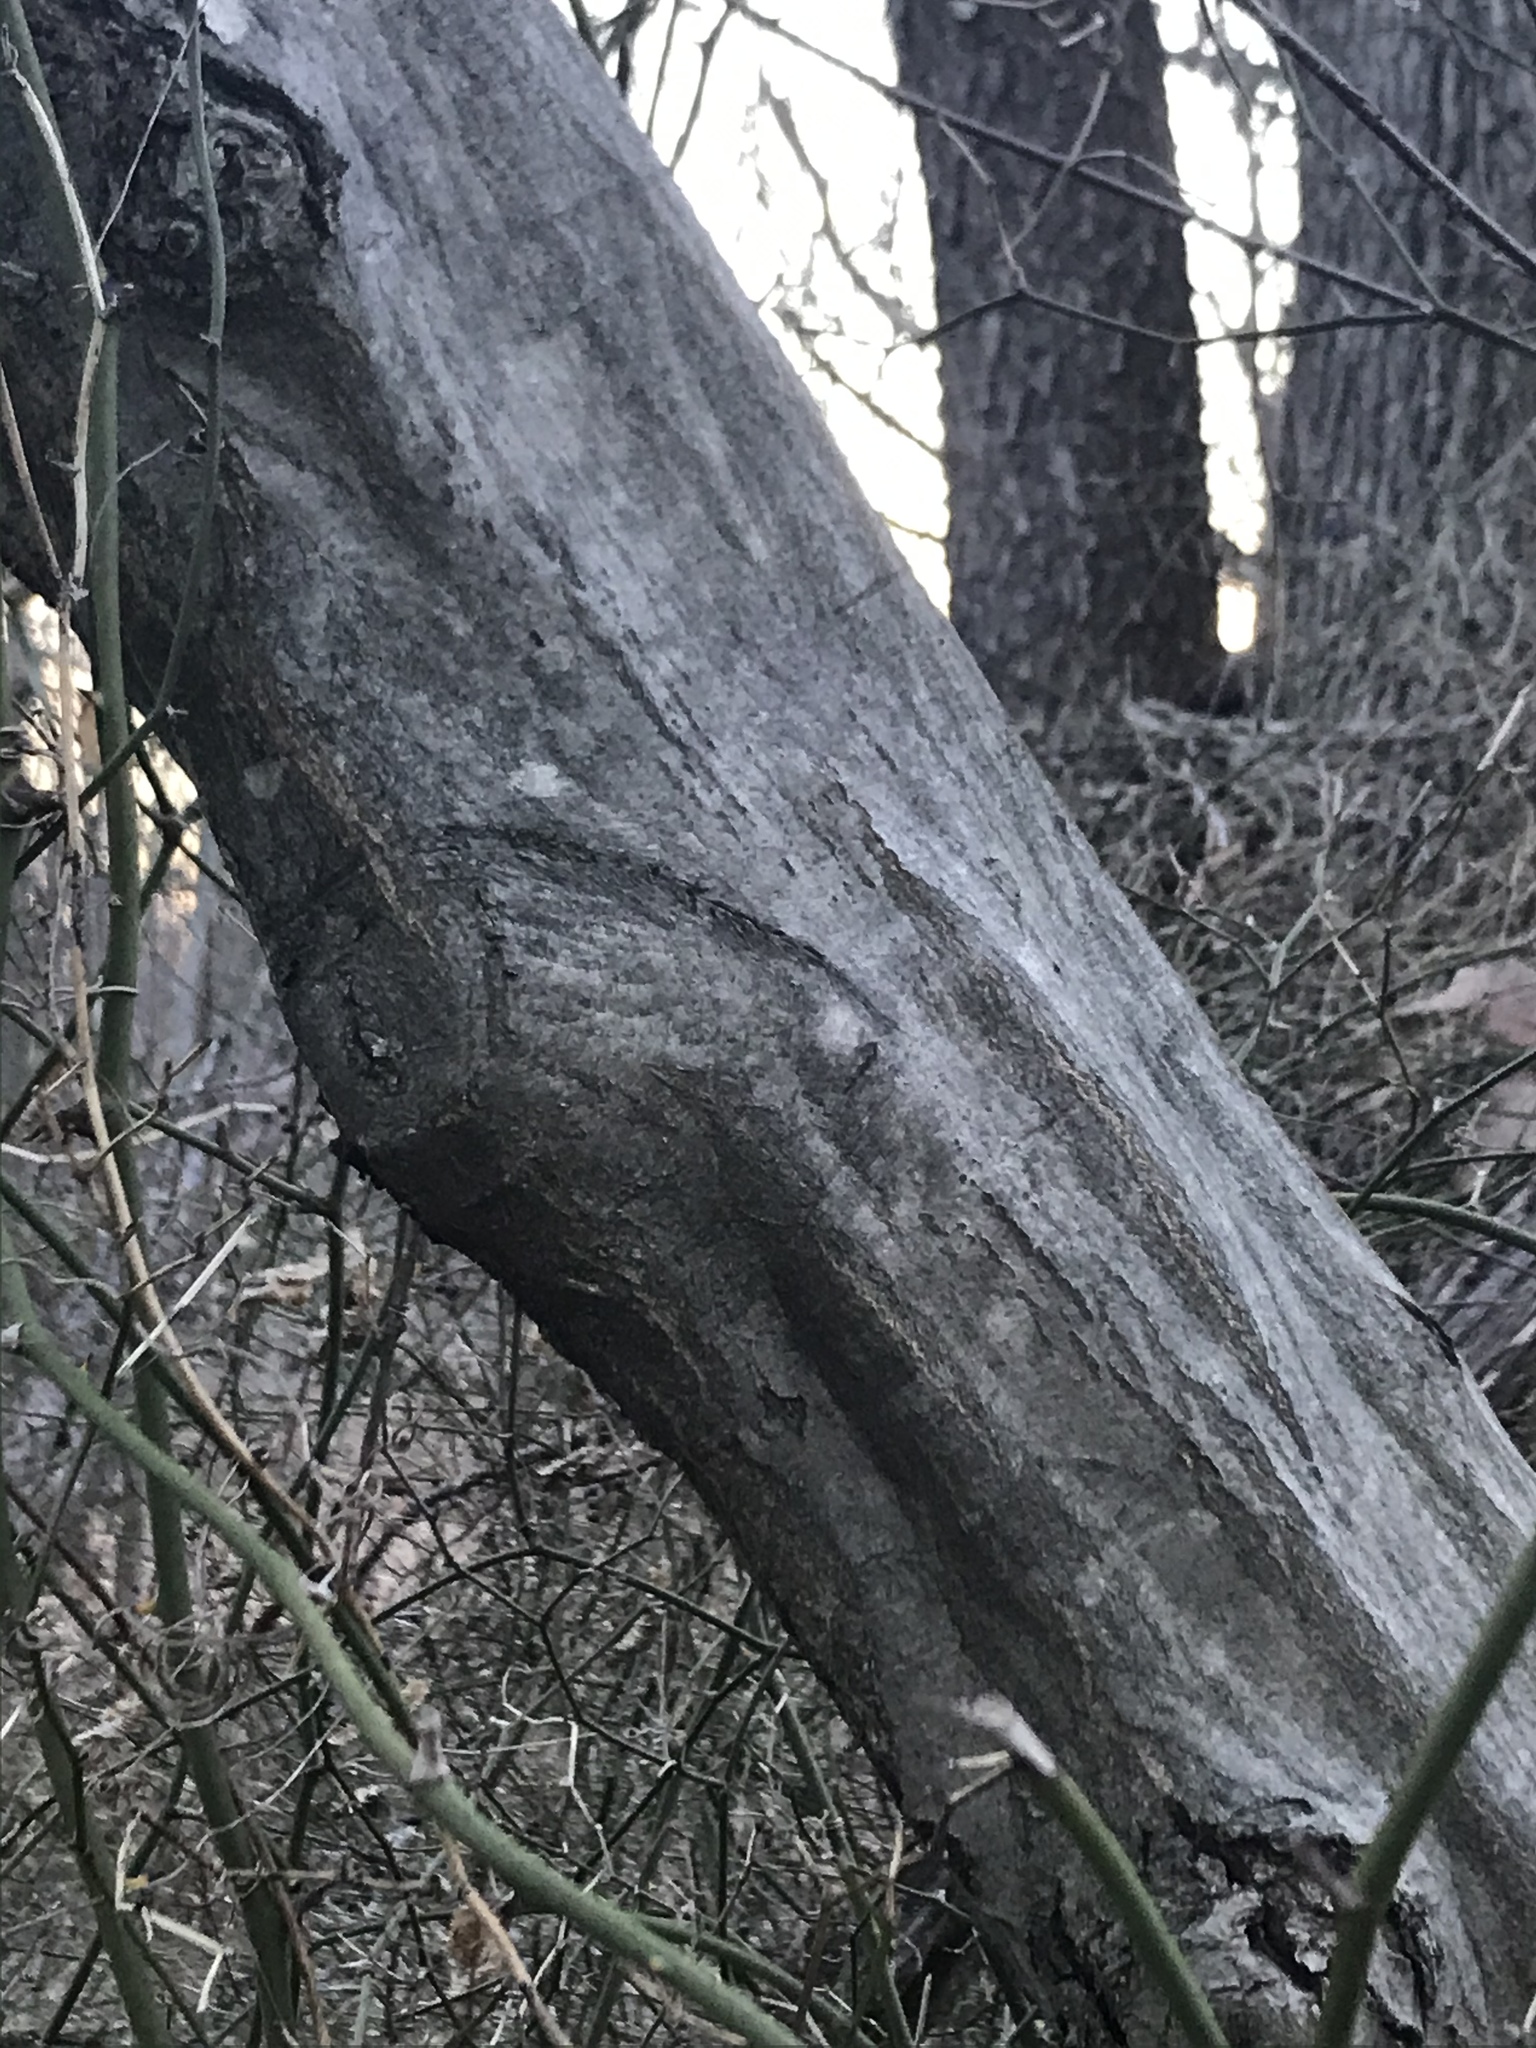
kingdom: Plantae
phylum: Tracheophyta
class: Magnoliopsida
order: Fagales
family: Betulaceae
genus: Carpinus
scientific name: Carpinus caroliniana
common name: American hornbeam
